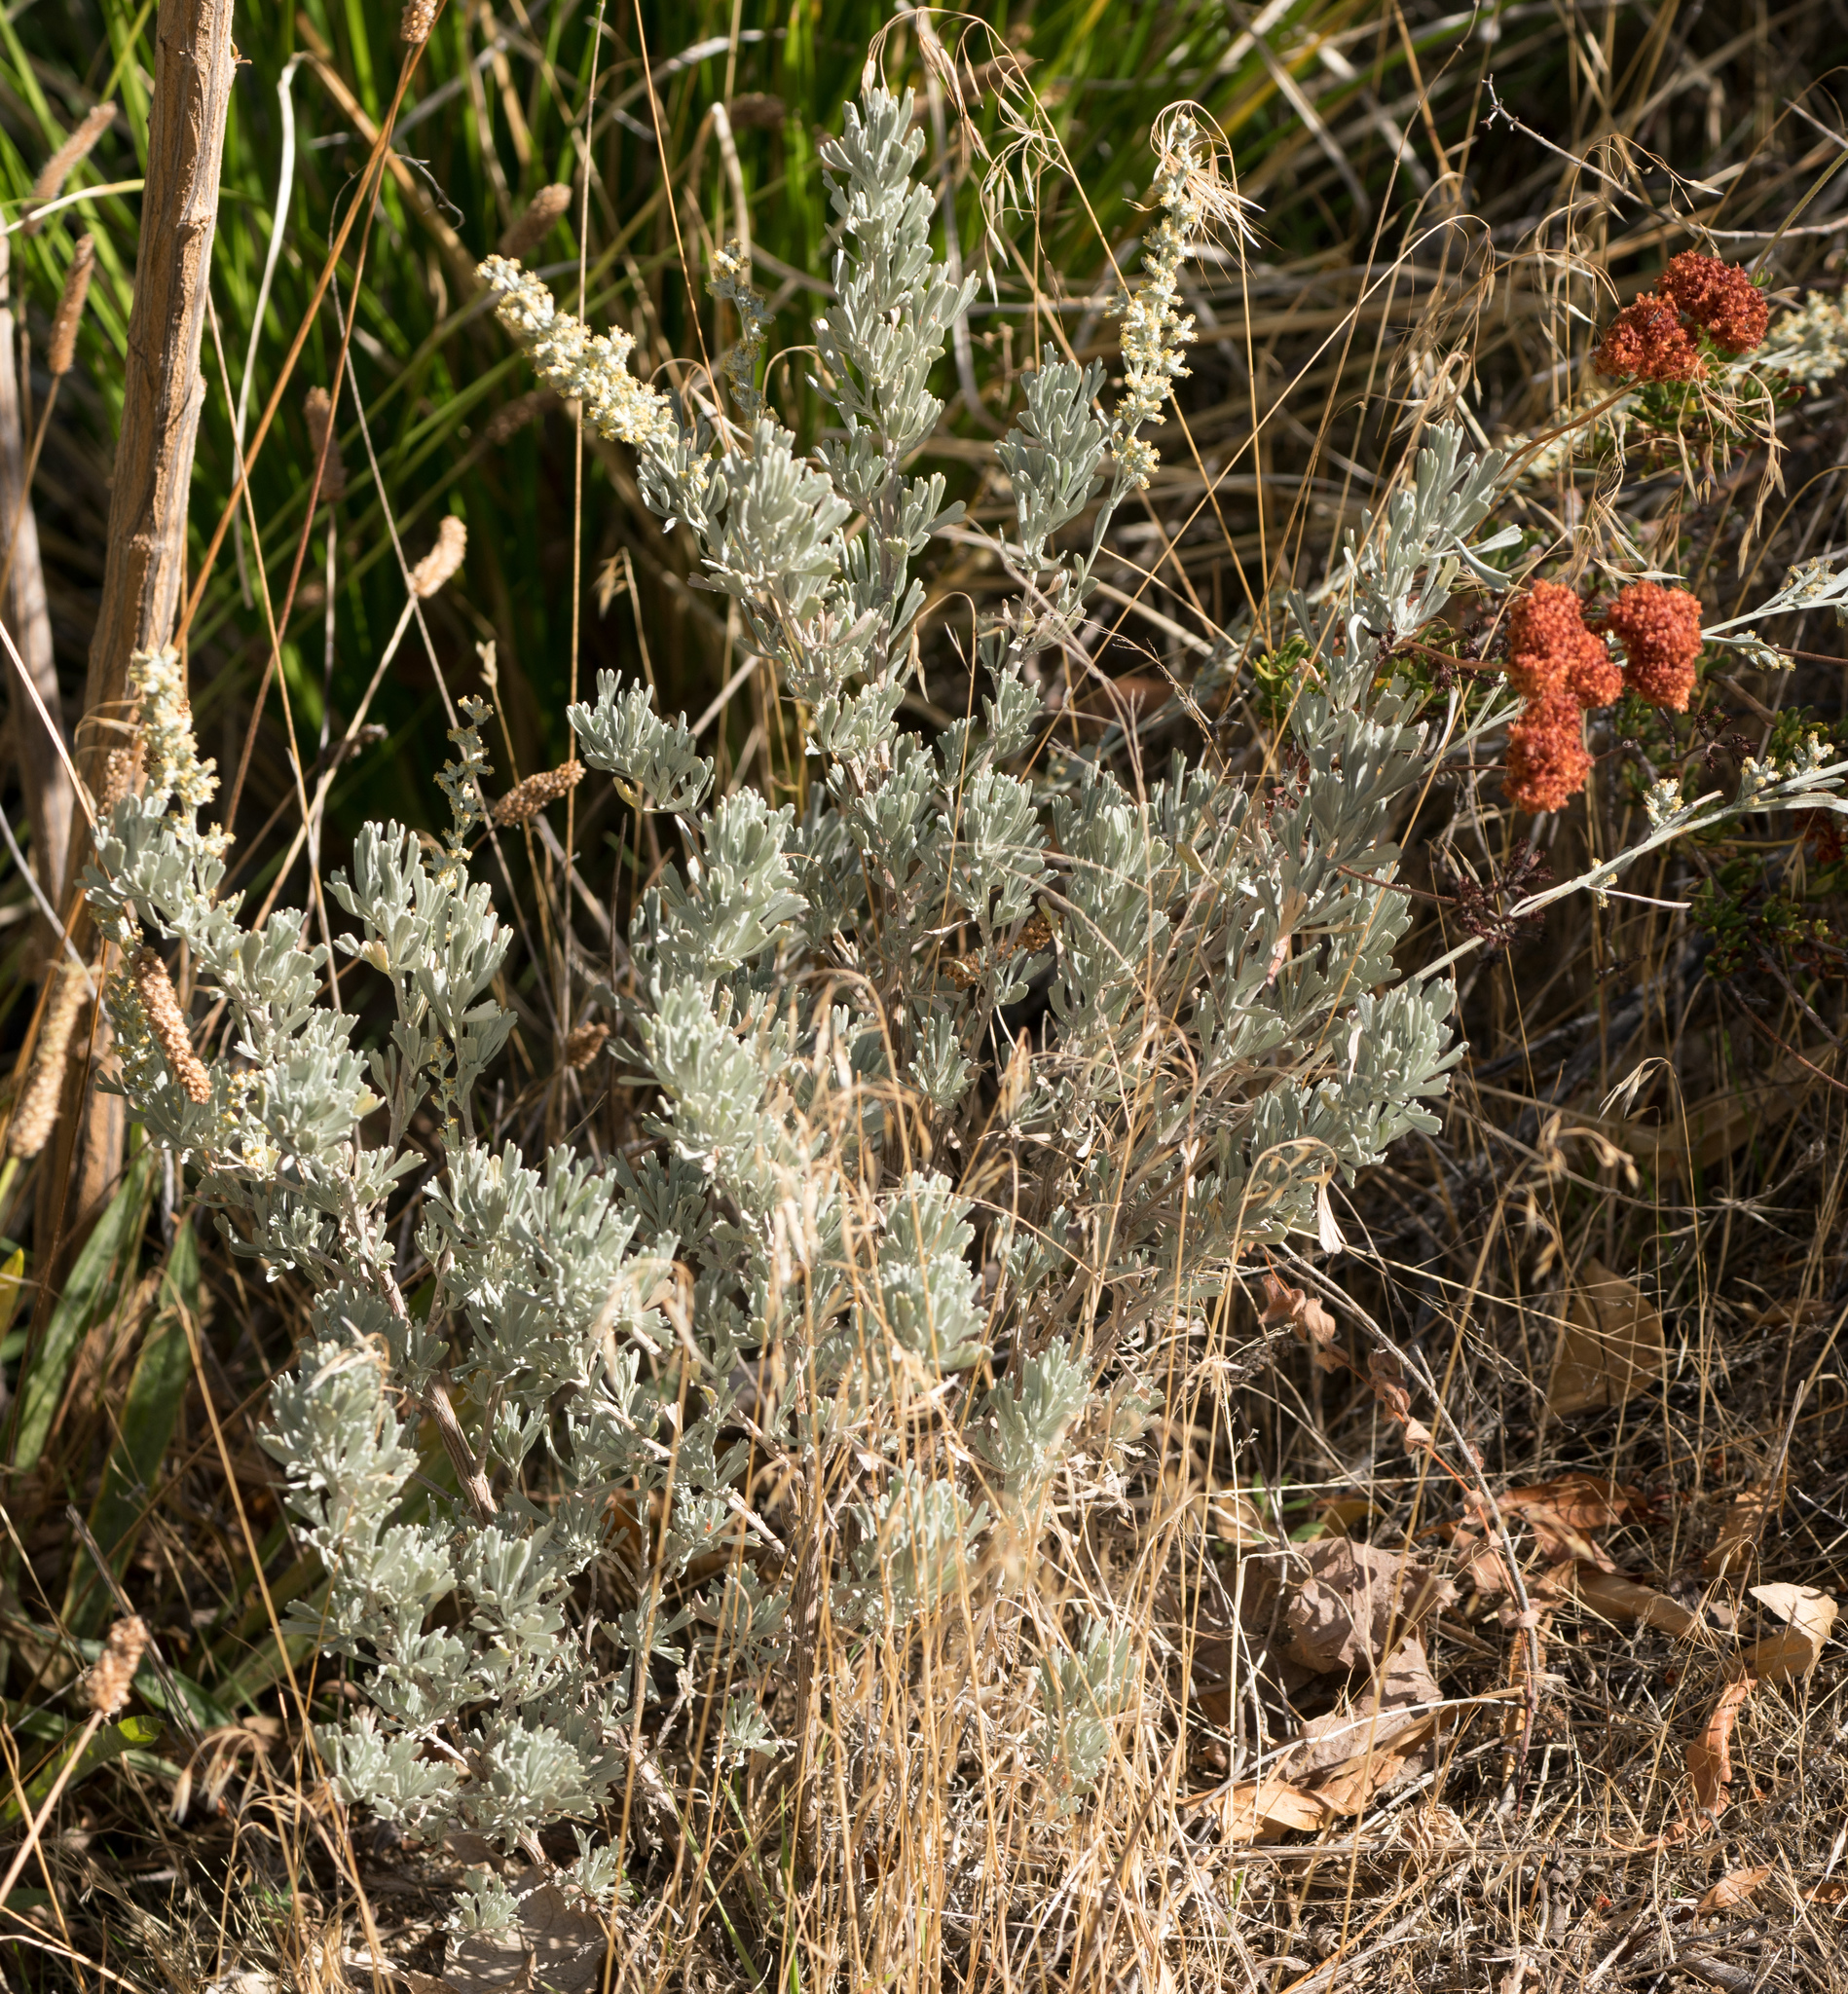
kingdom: Plantae
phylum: Tracheophyta
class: Magnoliopsida
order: Asterales
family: Asteraceae
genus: Artemisia
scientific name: Artemisia tridentata
